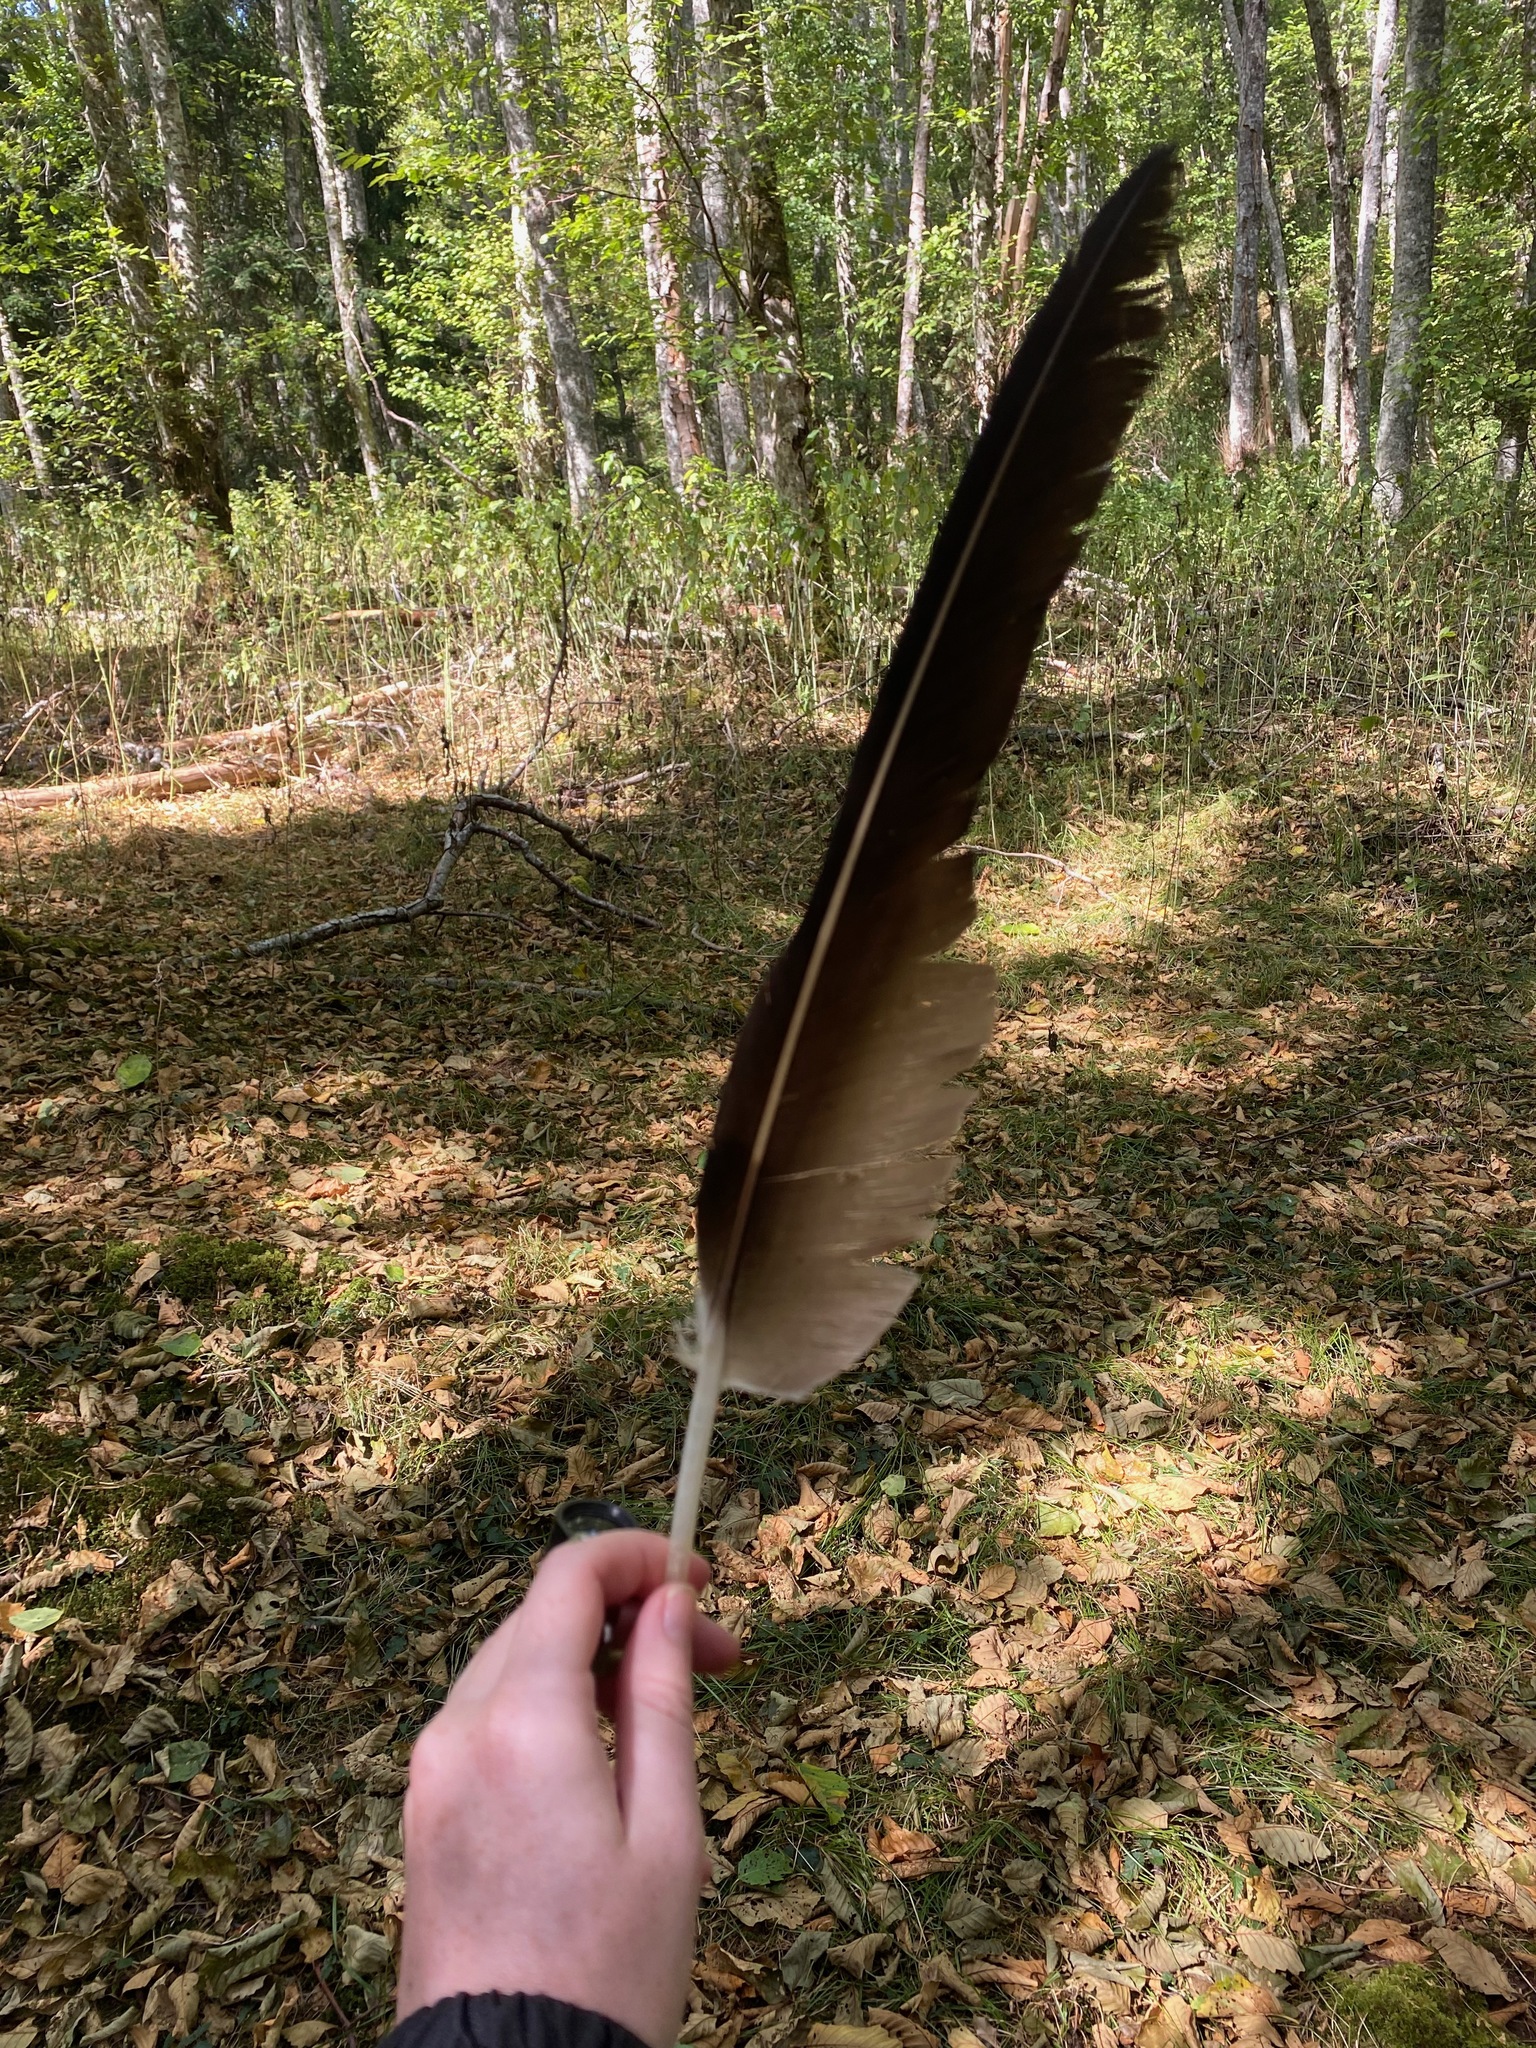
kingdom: Animalia
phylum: Chordata
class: Aves
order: Accipitriformes
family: Cathartidae
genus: Cathartes
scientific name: Cathartes aura
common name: Turkey vulture
